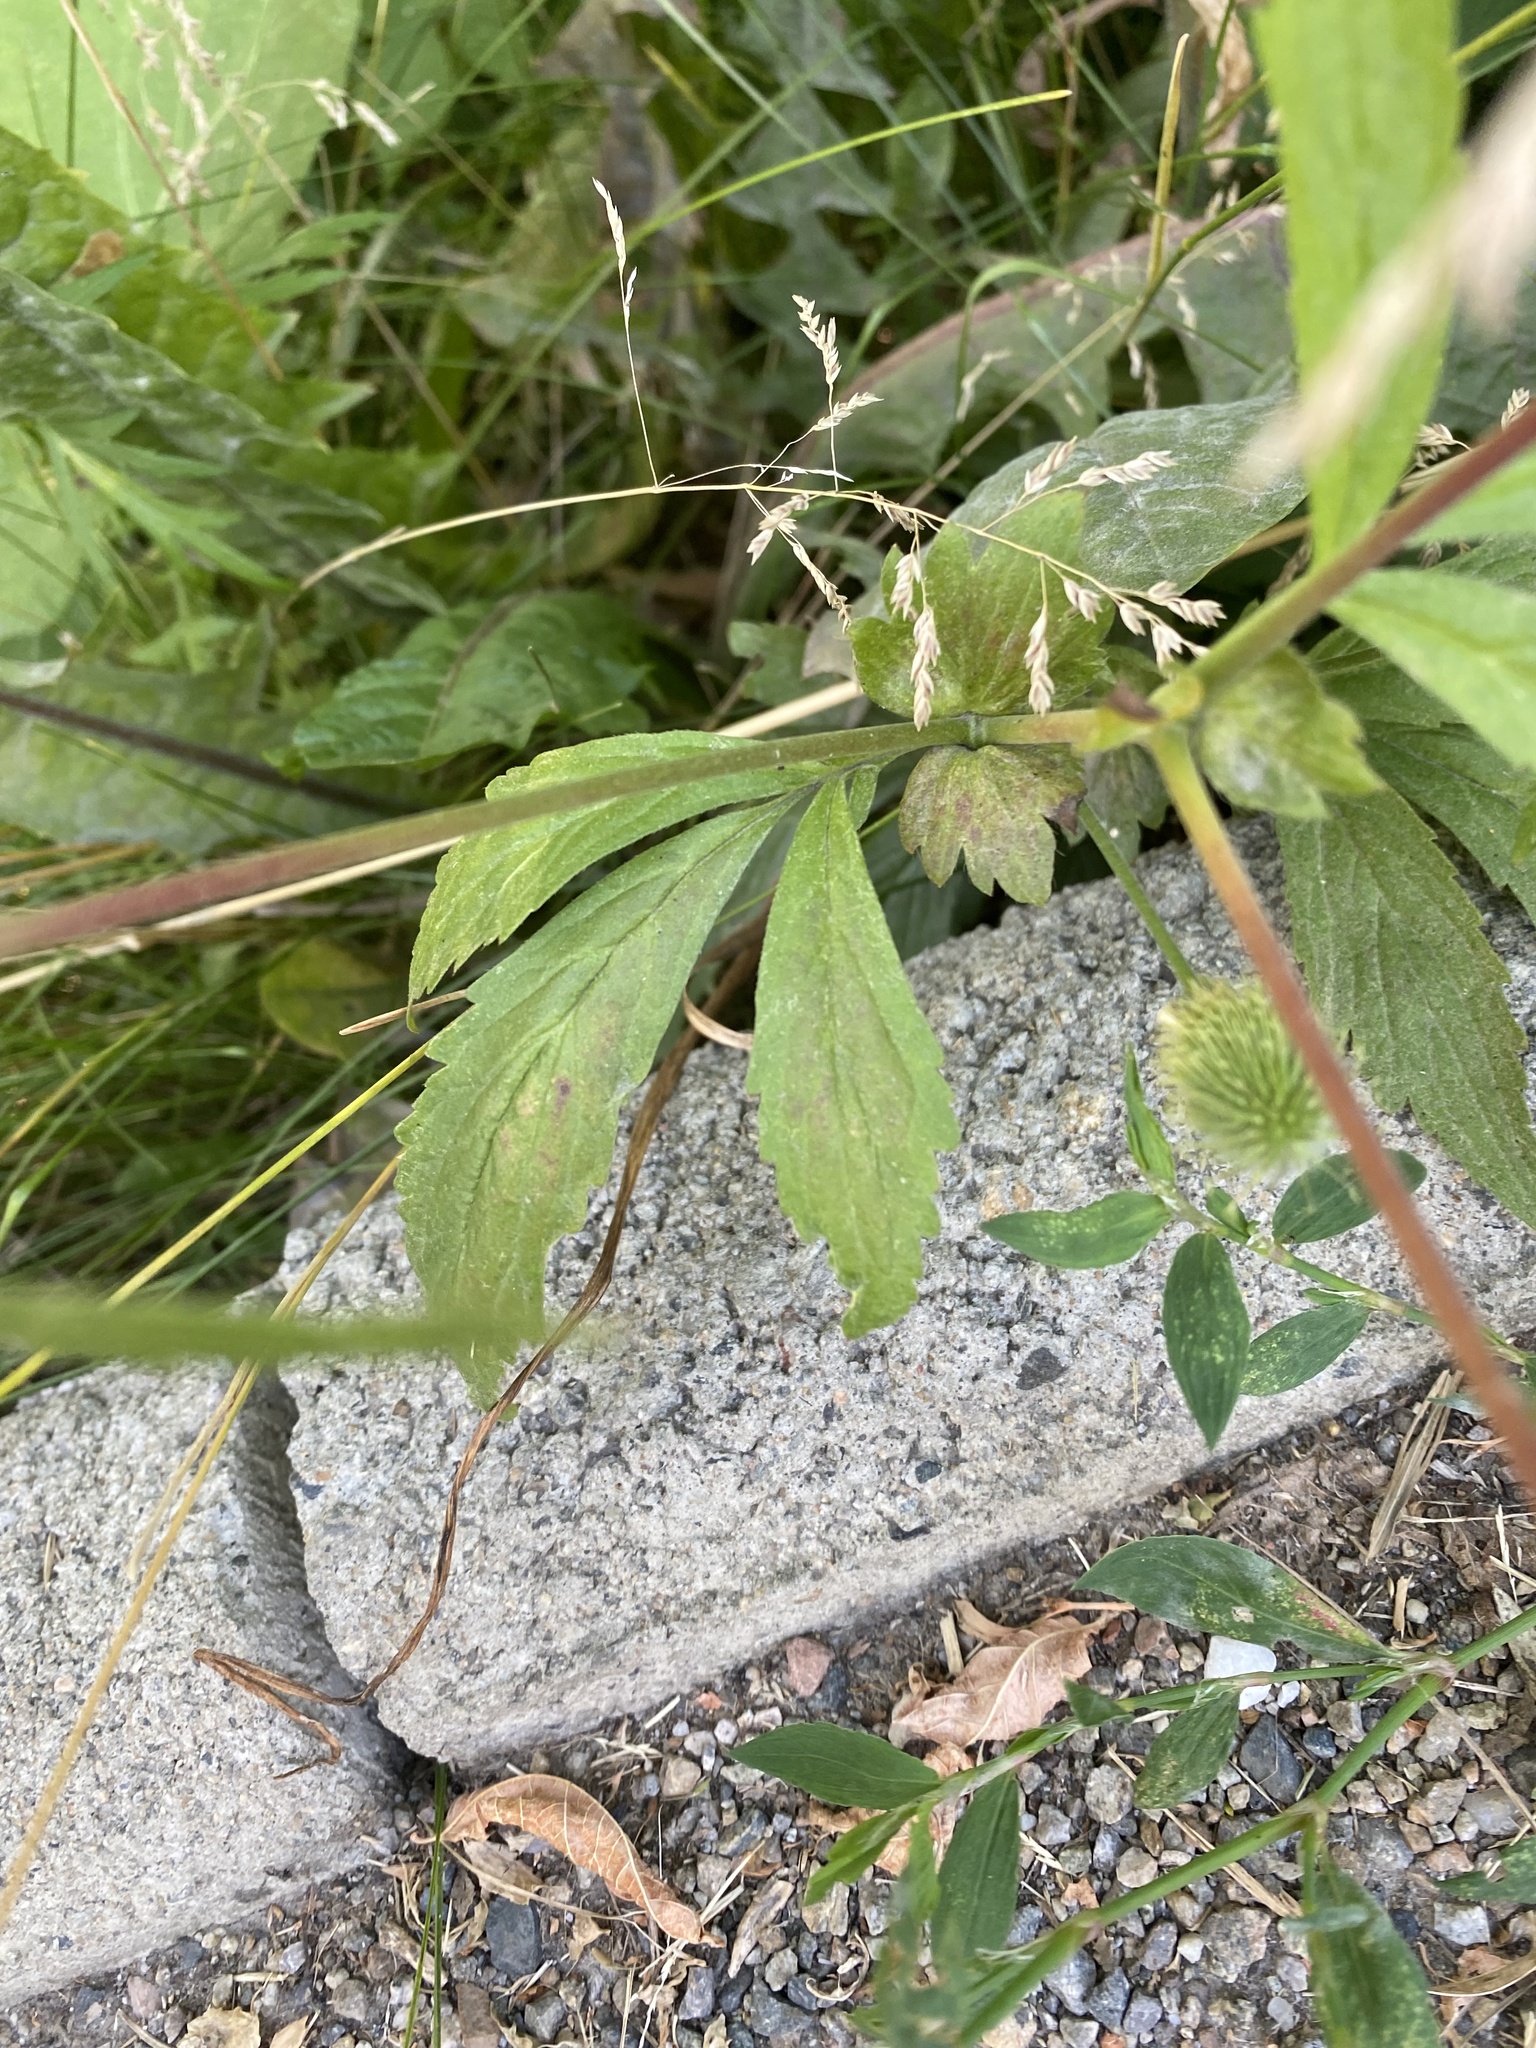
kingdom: Plantae
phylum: Tracheophyta
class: Magnoliopsida
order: Rosales
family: Rosaceae
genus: Geum
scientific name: Geum aleppicum
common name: Yellow avens
